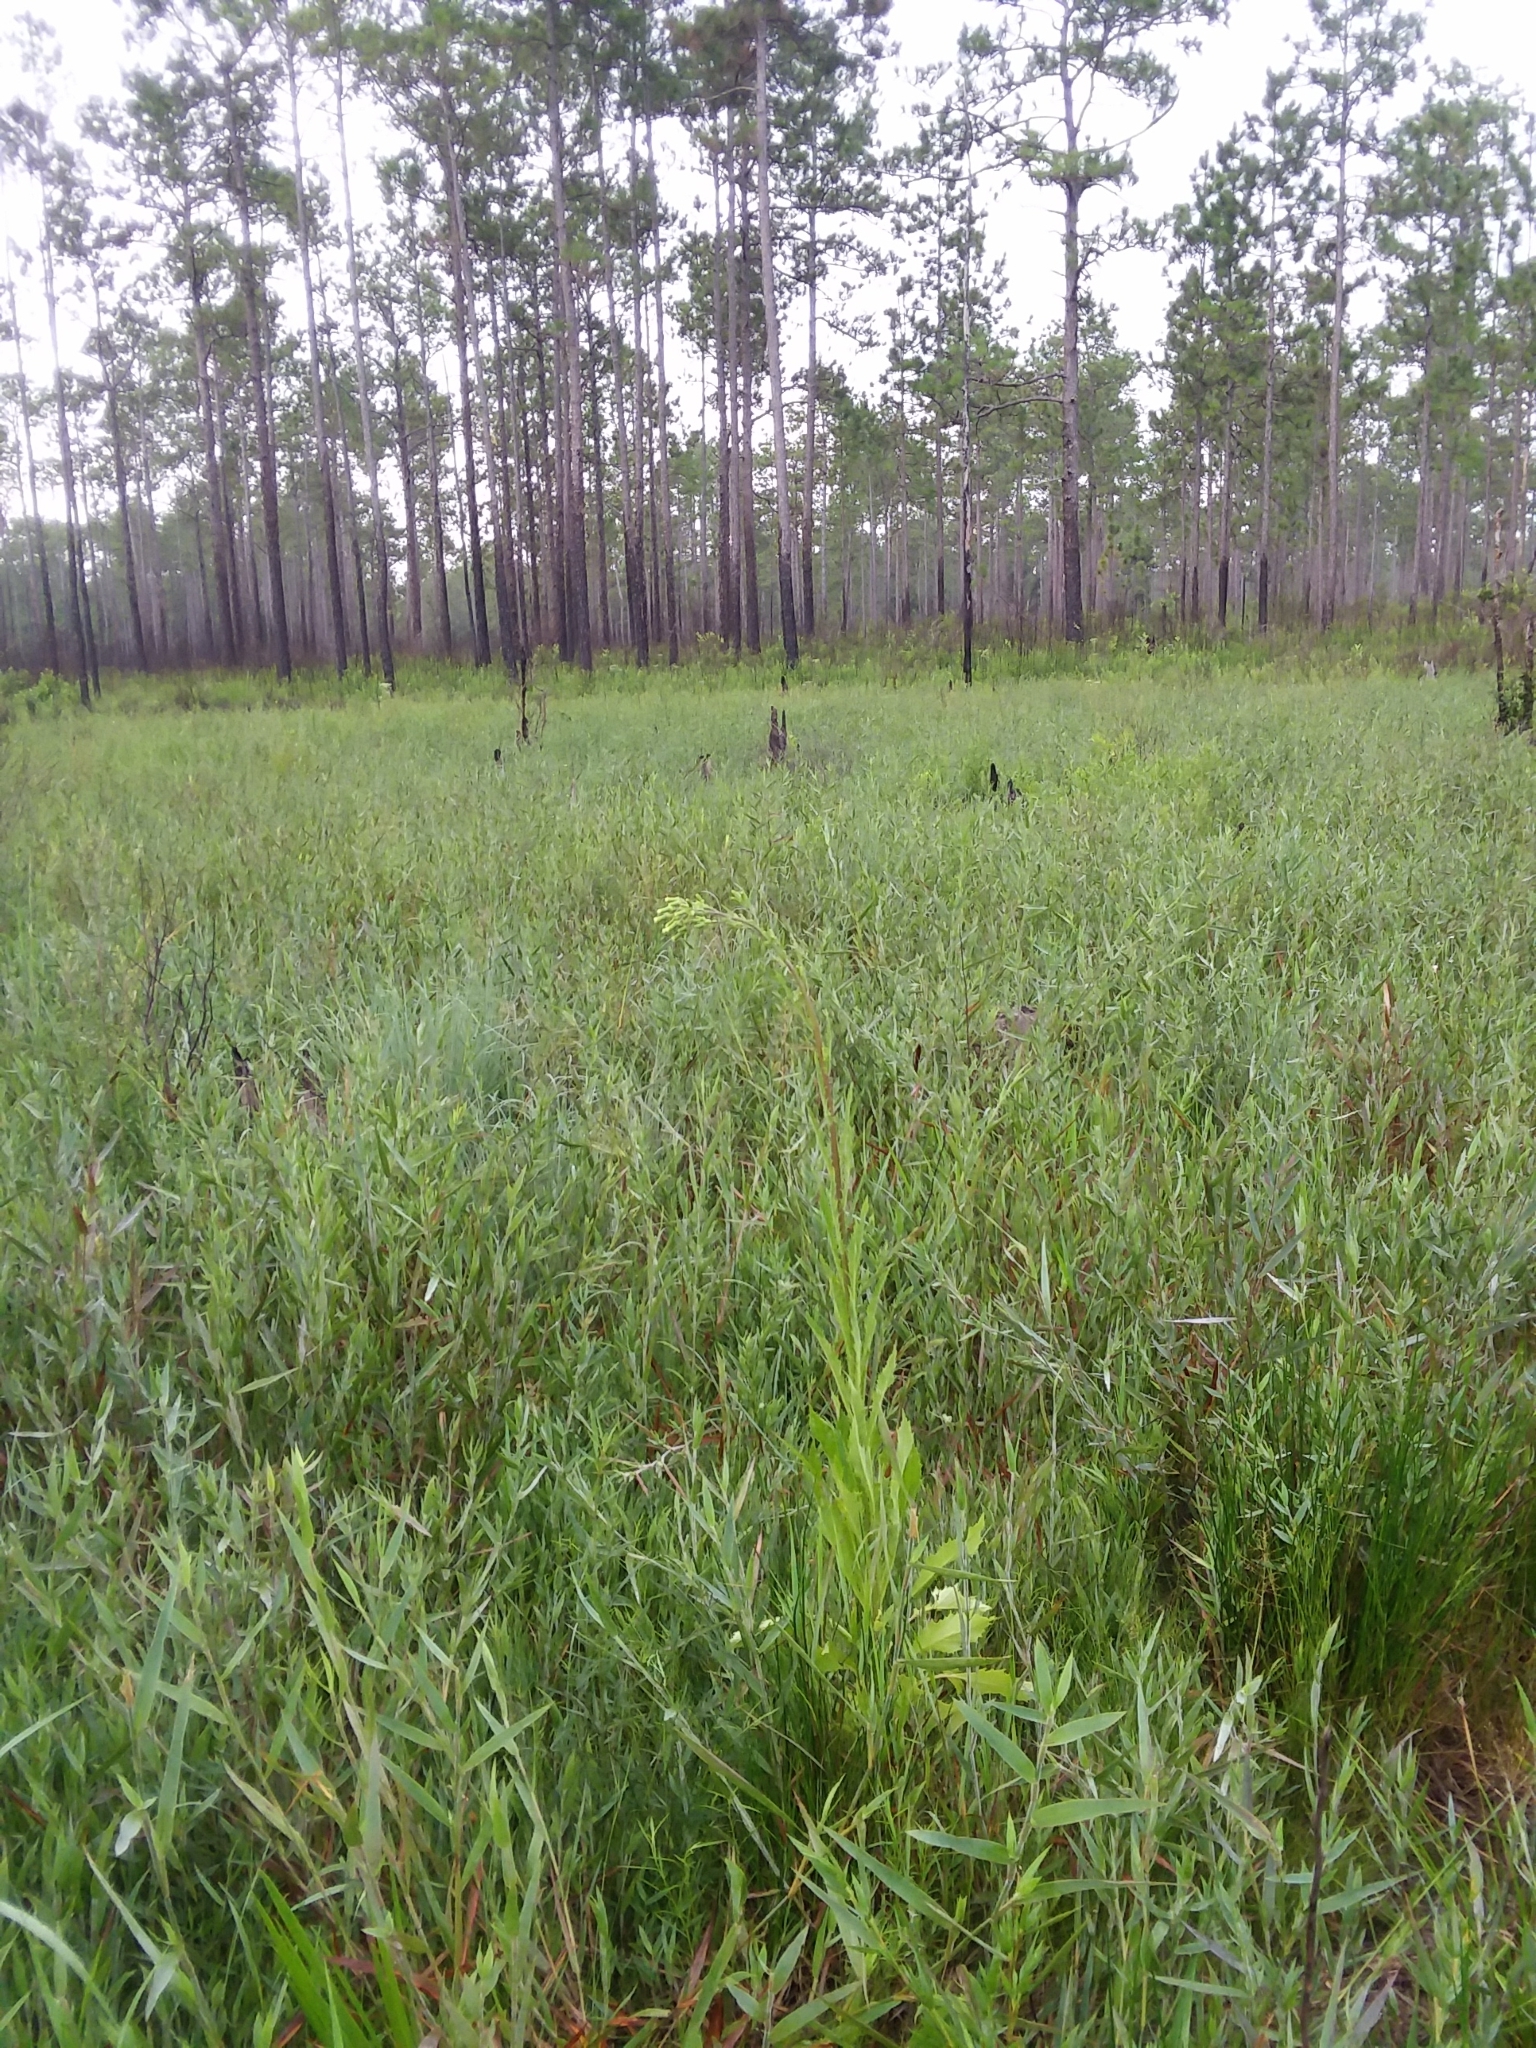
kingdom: Plantae
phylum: Tracheophyta
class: Magnoliopsida
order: Asterales
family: Asteraceae
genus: Erechtites
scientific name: Erechtites hieraciifolius
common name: American burnweed
